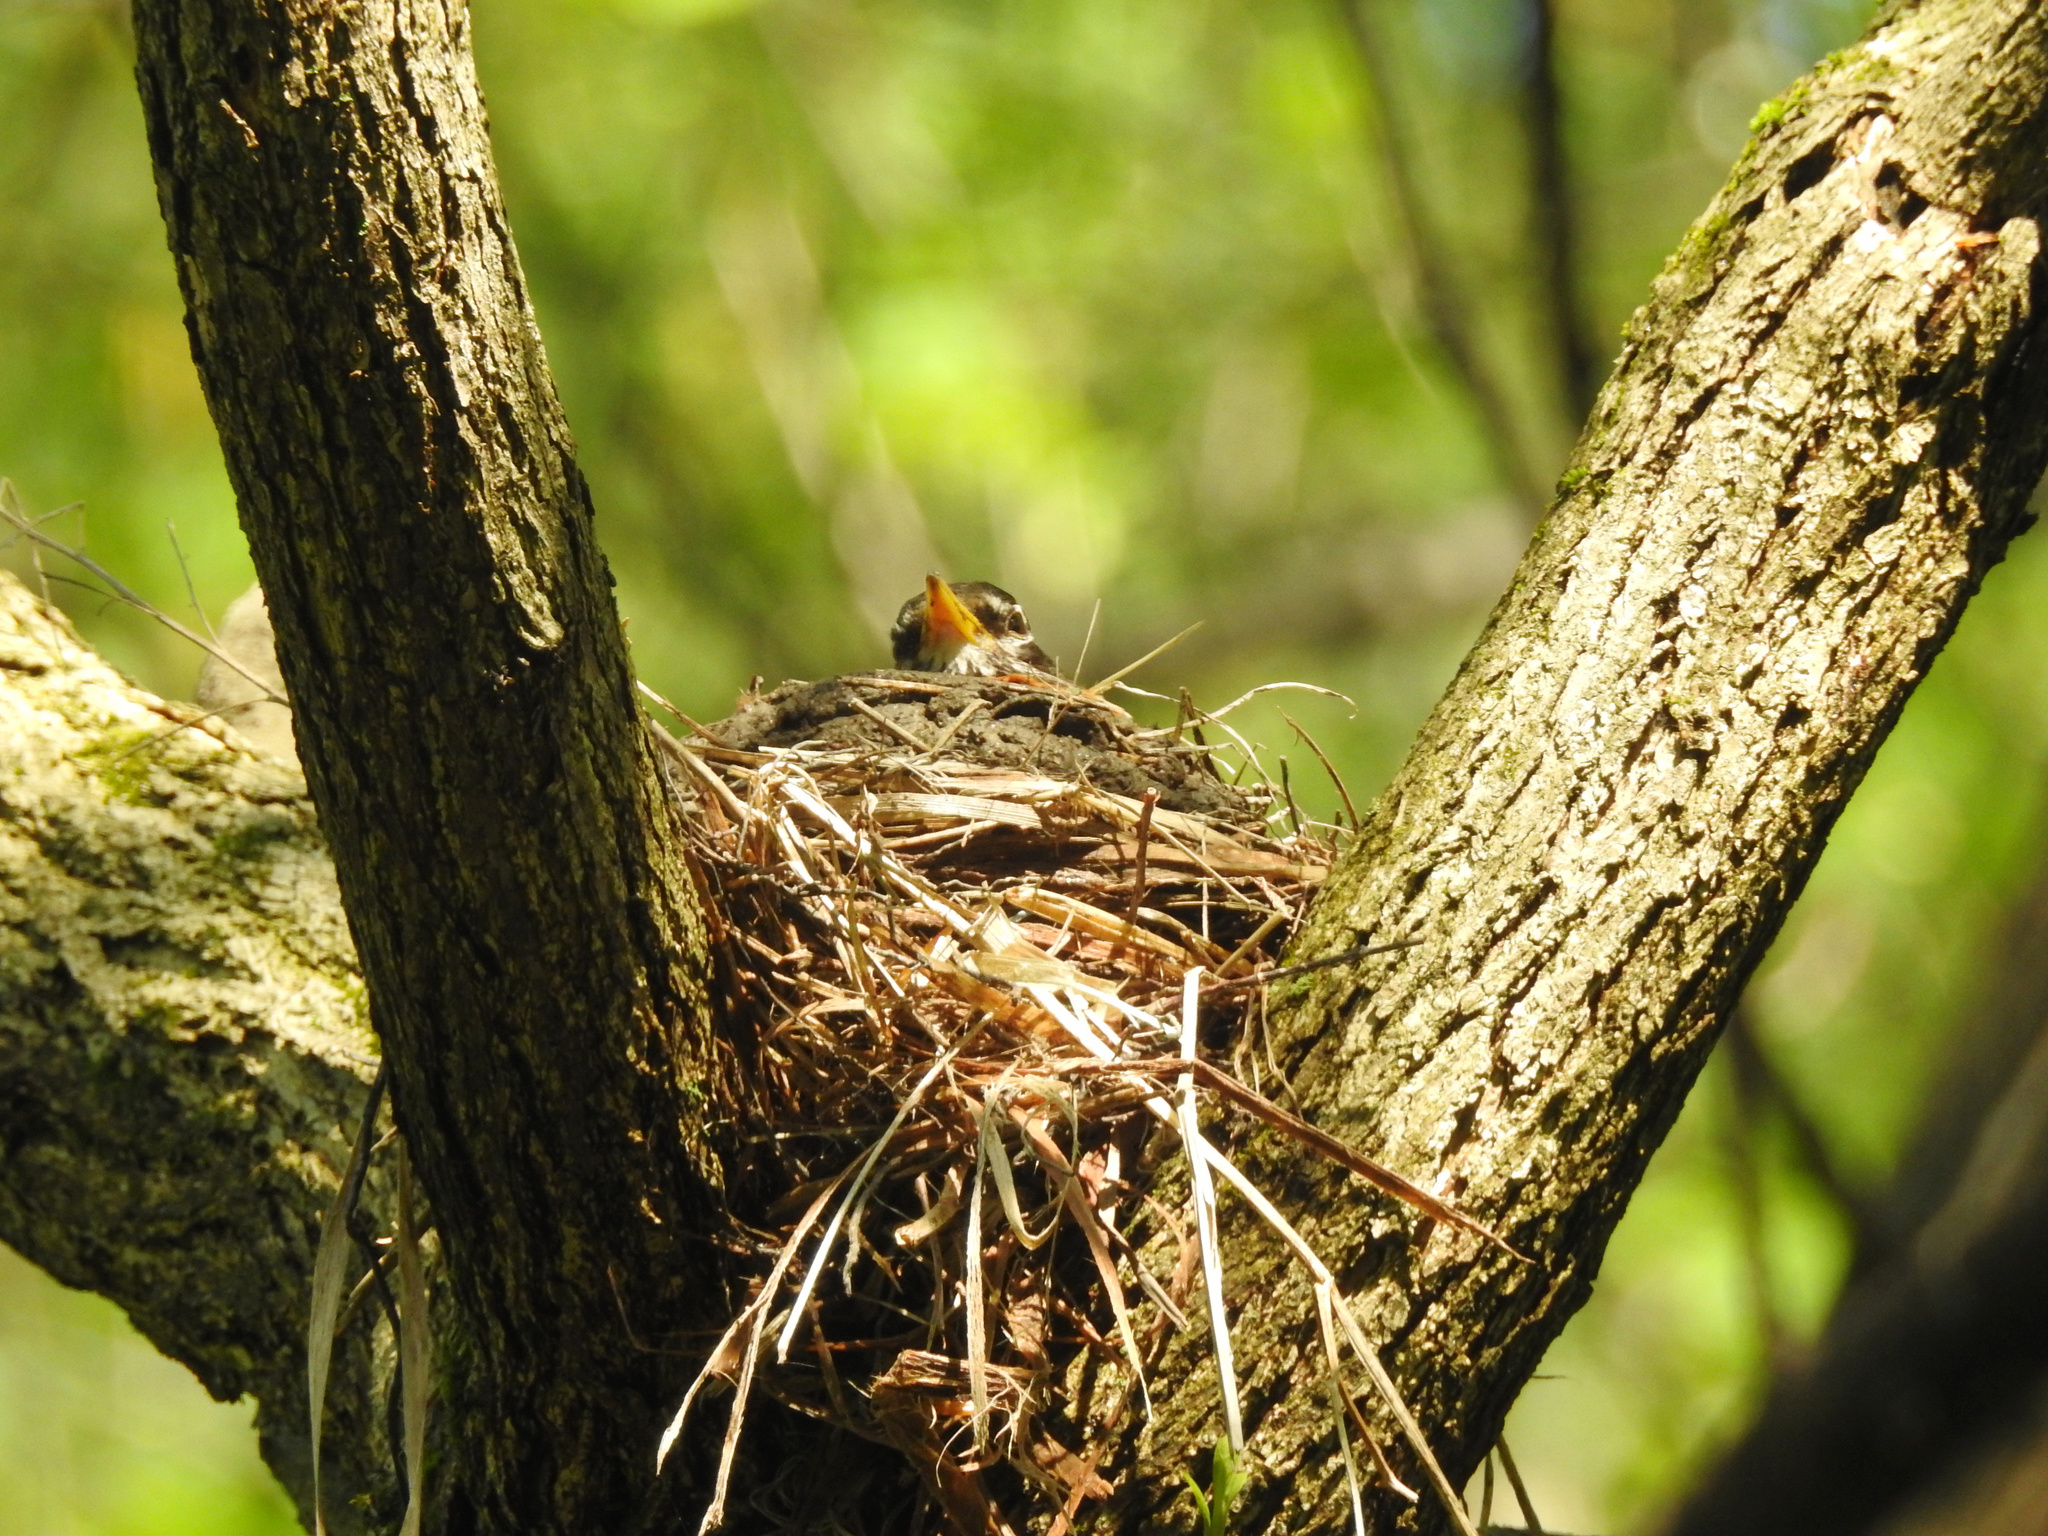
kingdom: Animalia
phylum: Chordata
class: Aves
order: Passeriformes
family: Turdidae
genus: Turdus
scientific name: Turdus migratorius
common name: American robin
